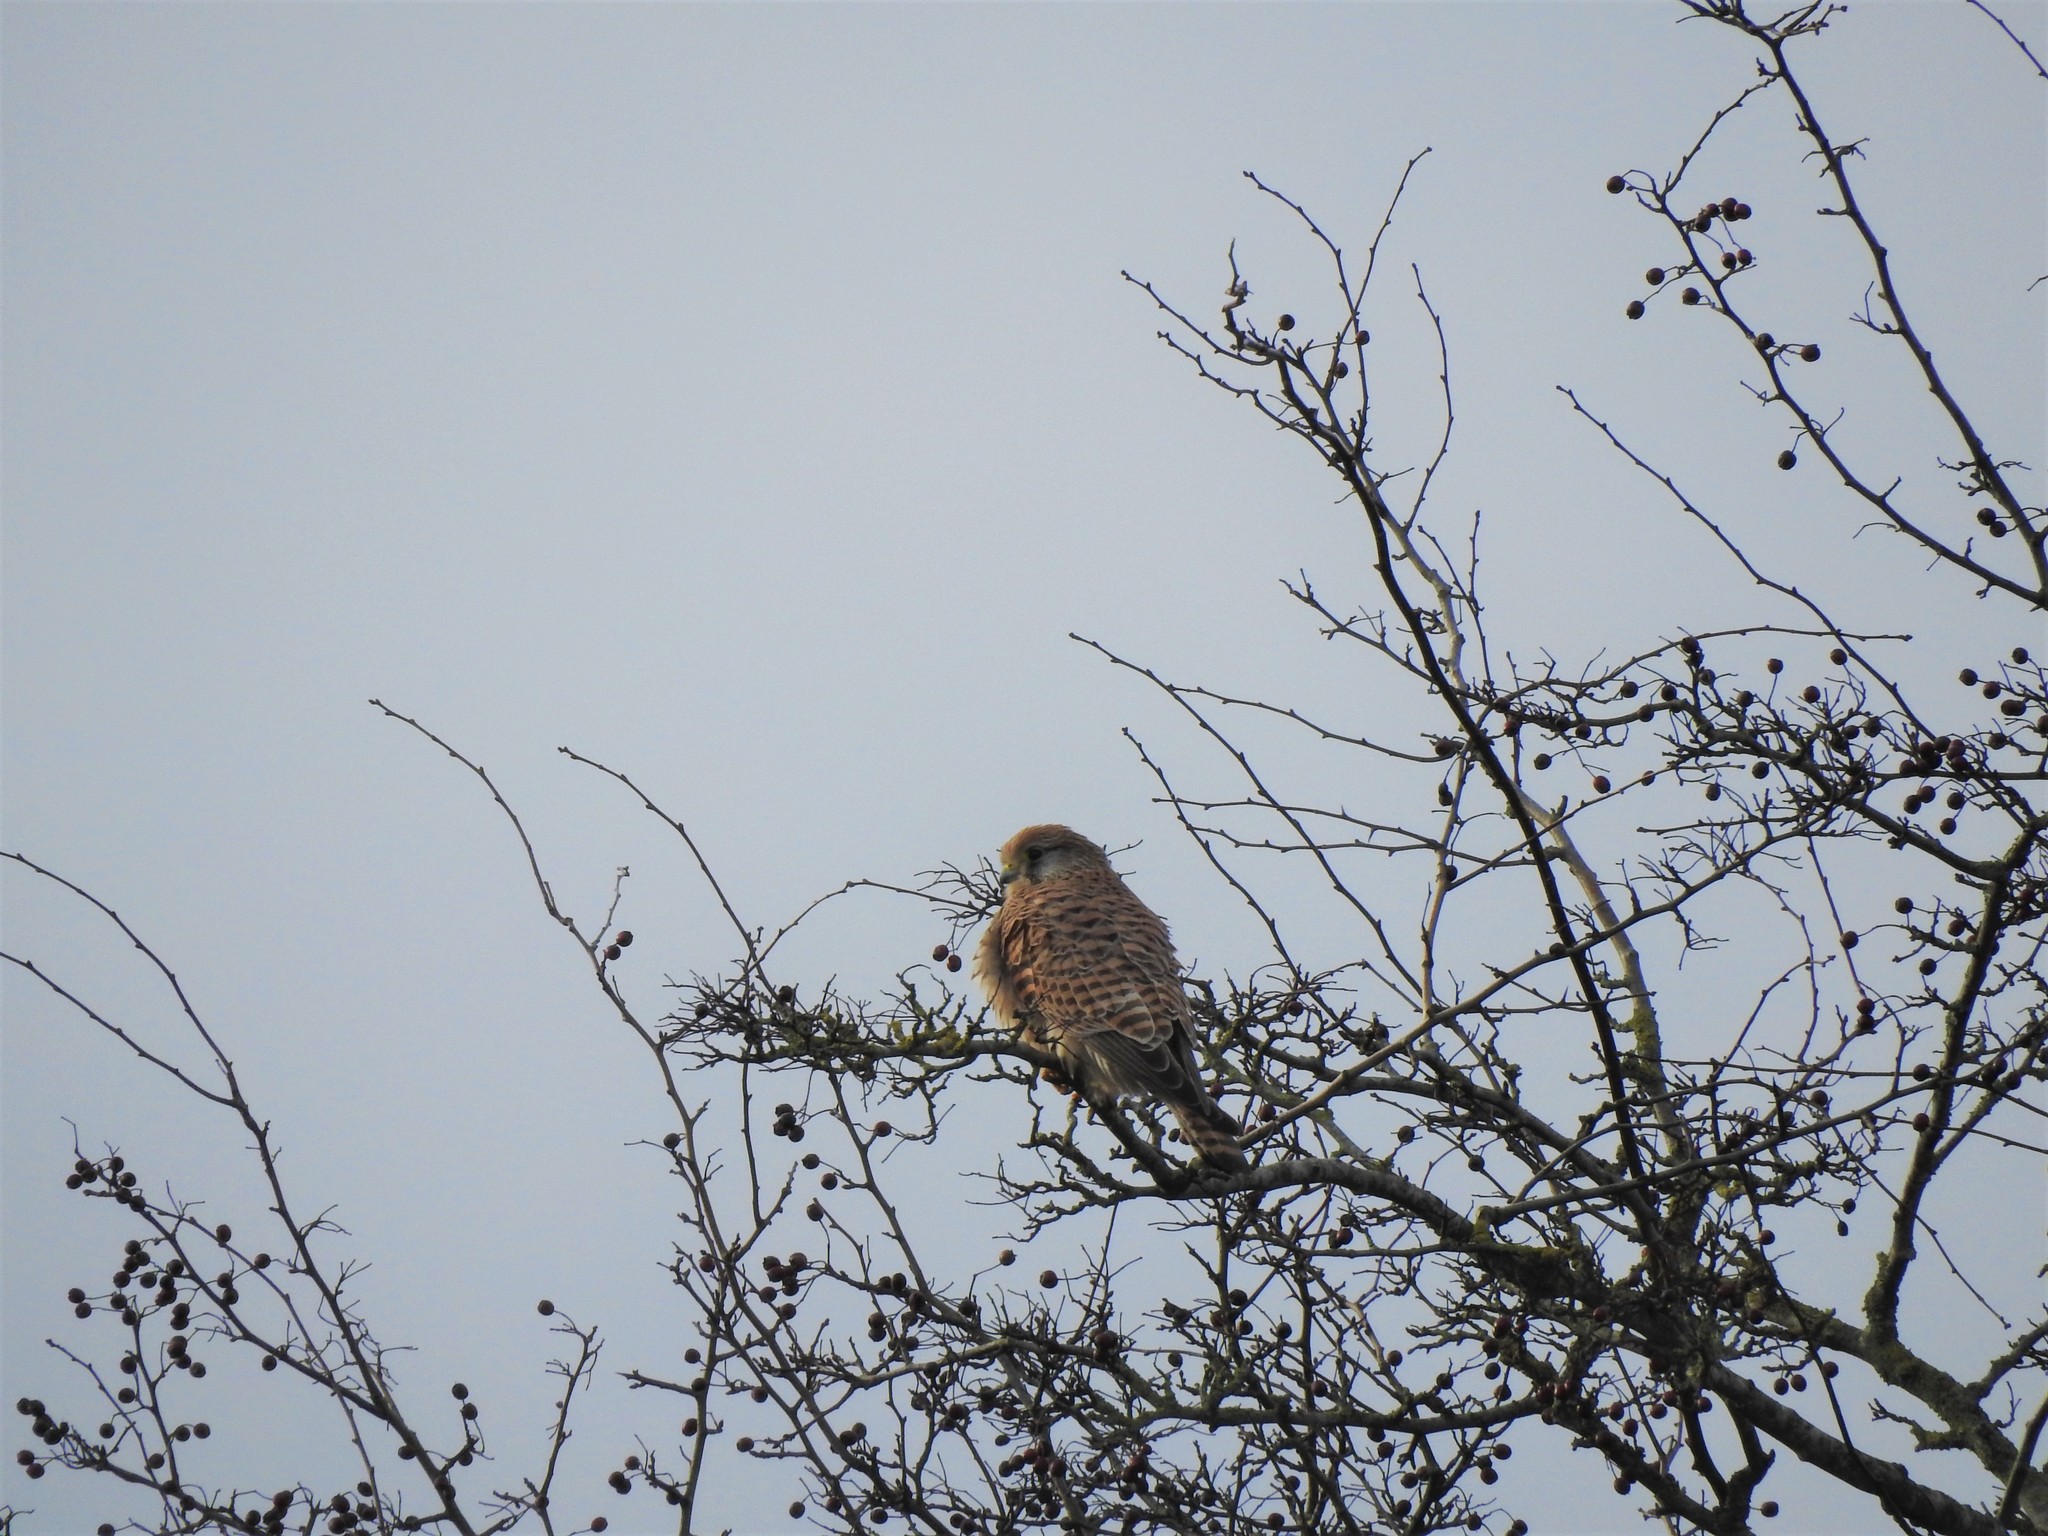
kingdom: Animalia
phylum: Chordata
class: Aves
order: Falconiformes
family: Falconidae
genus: Falco
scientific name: Falco tinnunculus
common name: Common kestrel
